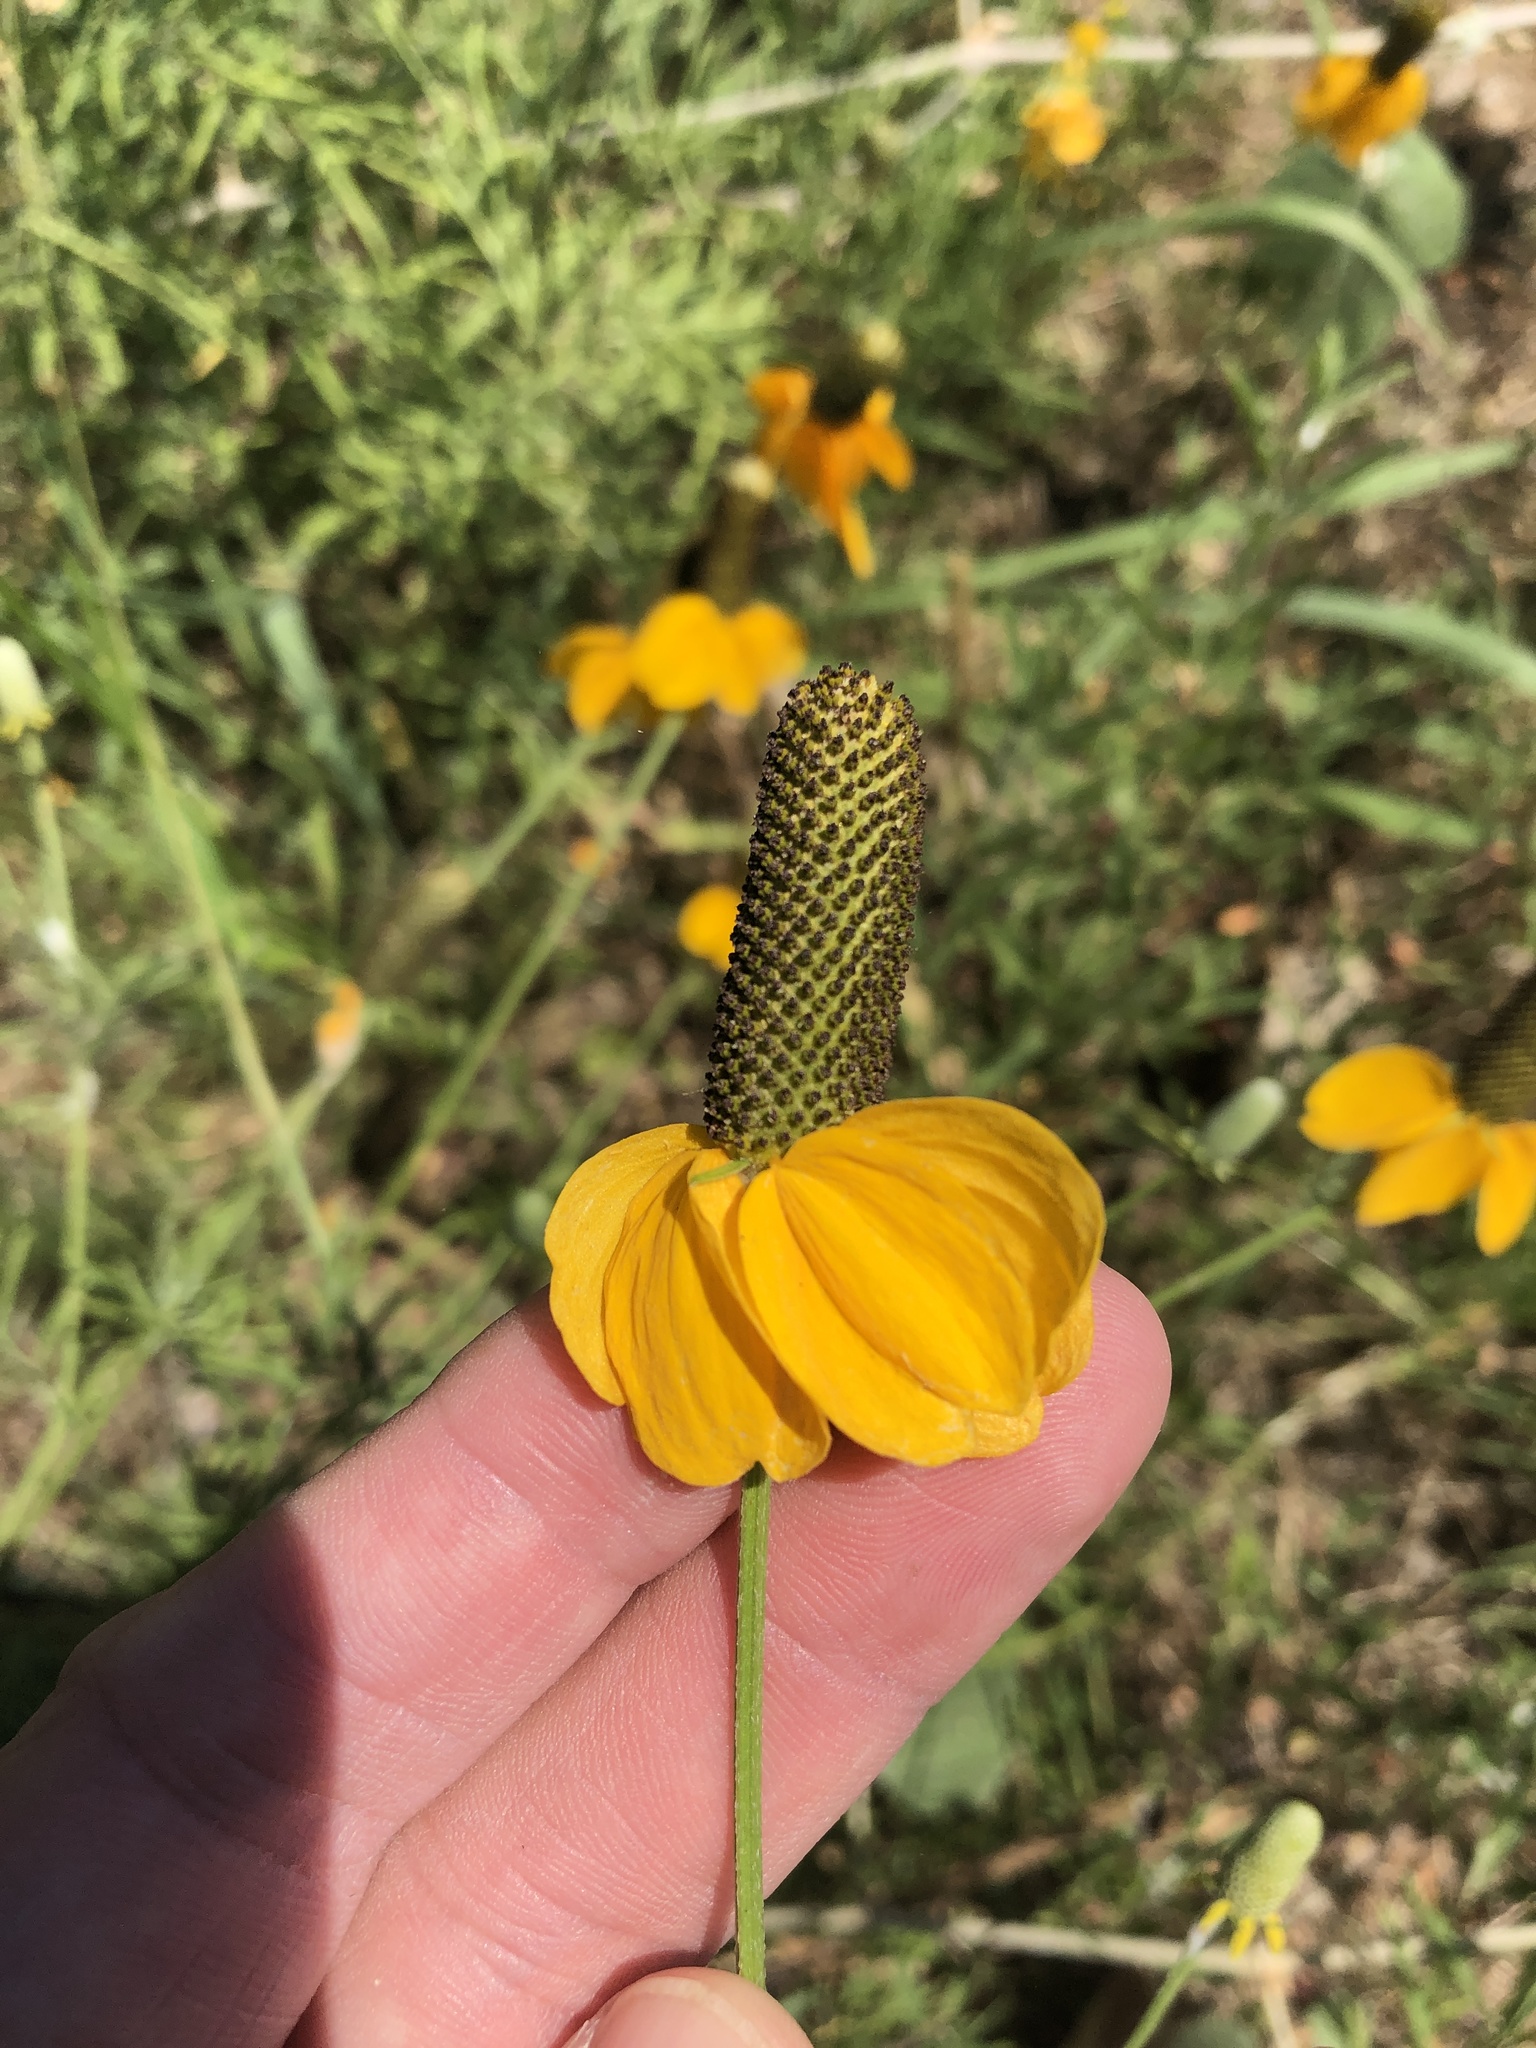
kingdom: Plantae
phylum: Tracheophyta
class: Magnoliopsida
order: Asterales
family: Asteraceae
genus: Ratibida
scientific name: Ratibida columnifera
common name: Prairie coneflower
